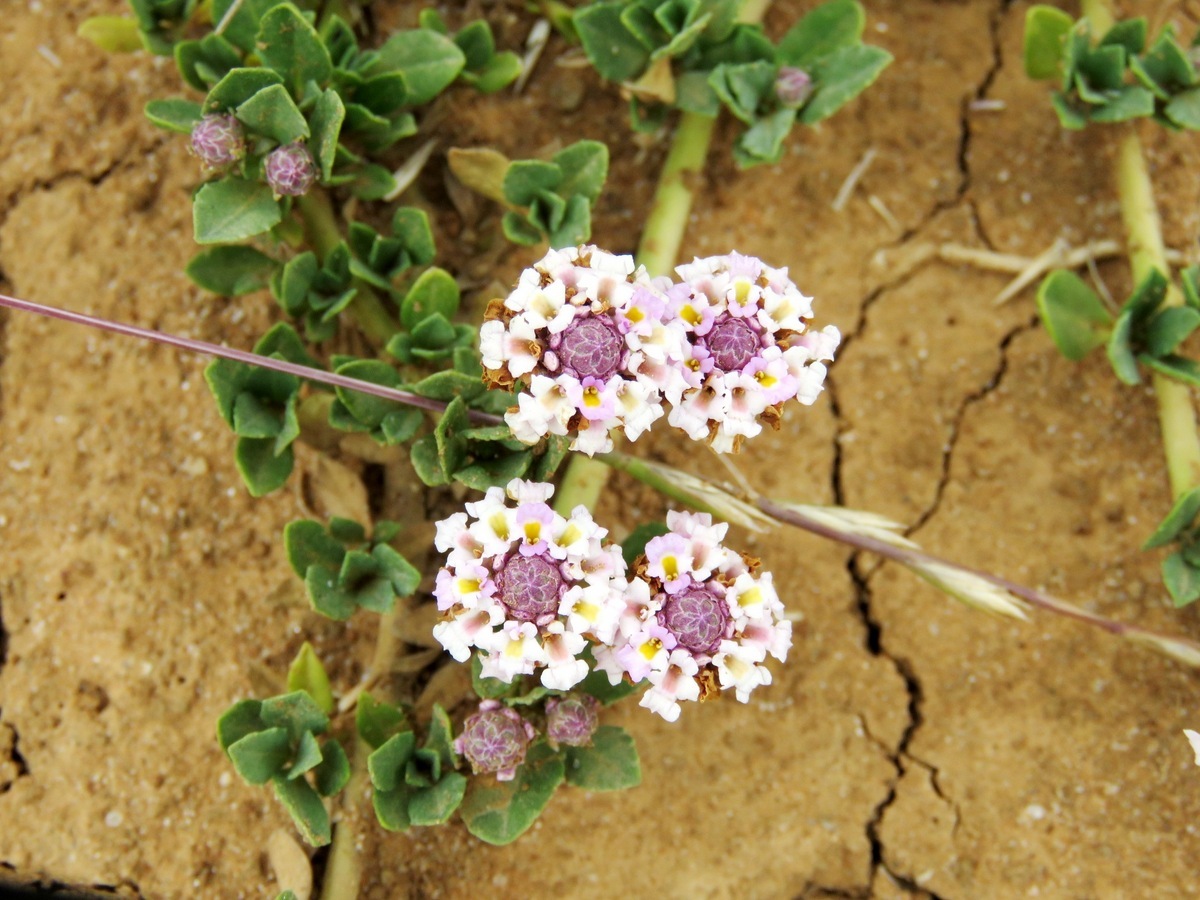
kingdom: Plantae
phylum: Tracheophyta
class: Magnoliopsida
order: Lamiales
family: Verbenaceae
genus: Phyla
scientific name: Phyla nodiflora
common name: Frogfruit
